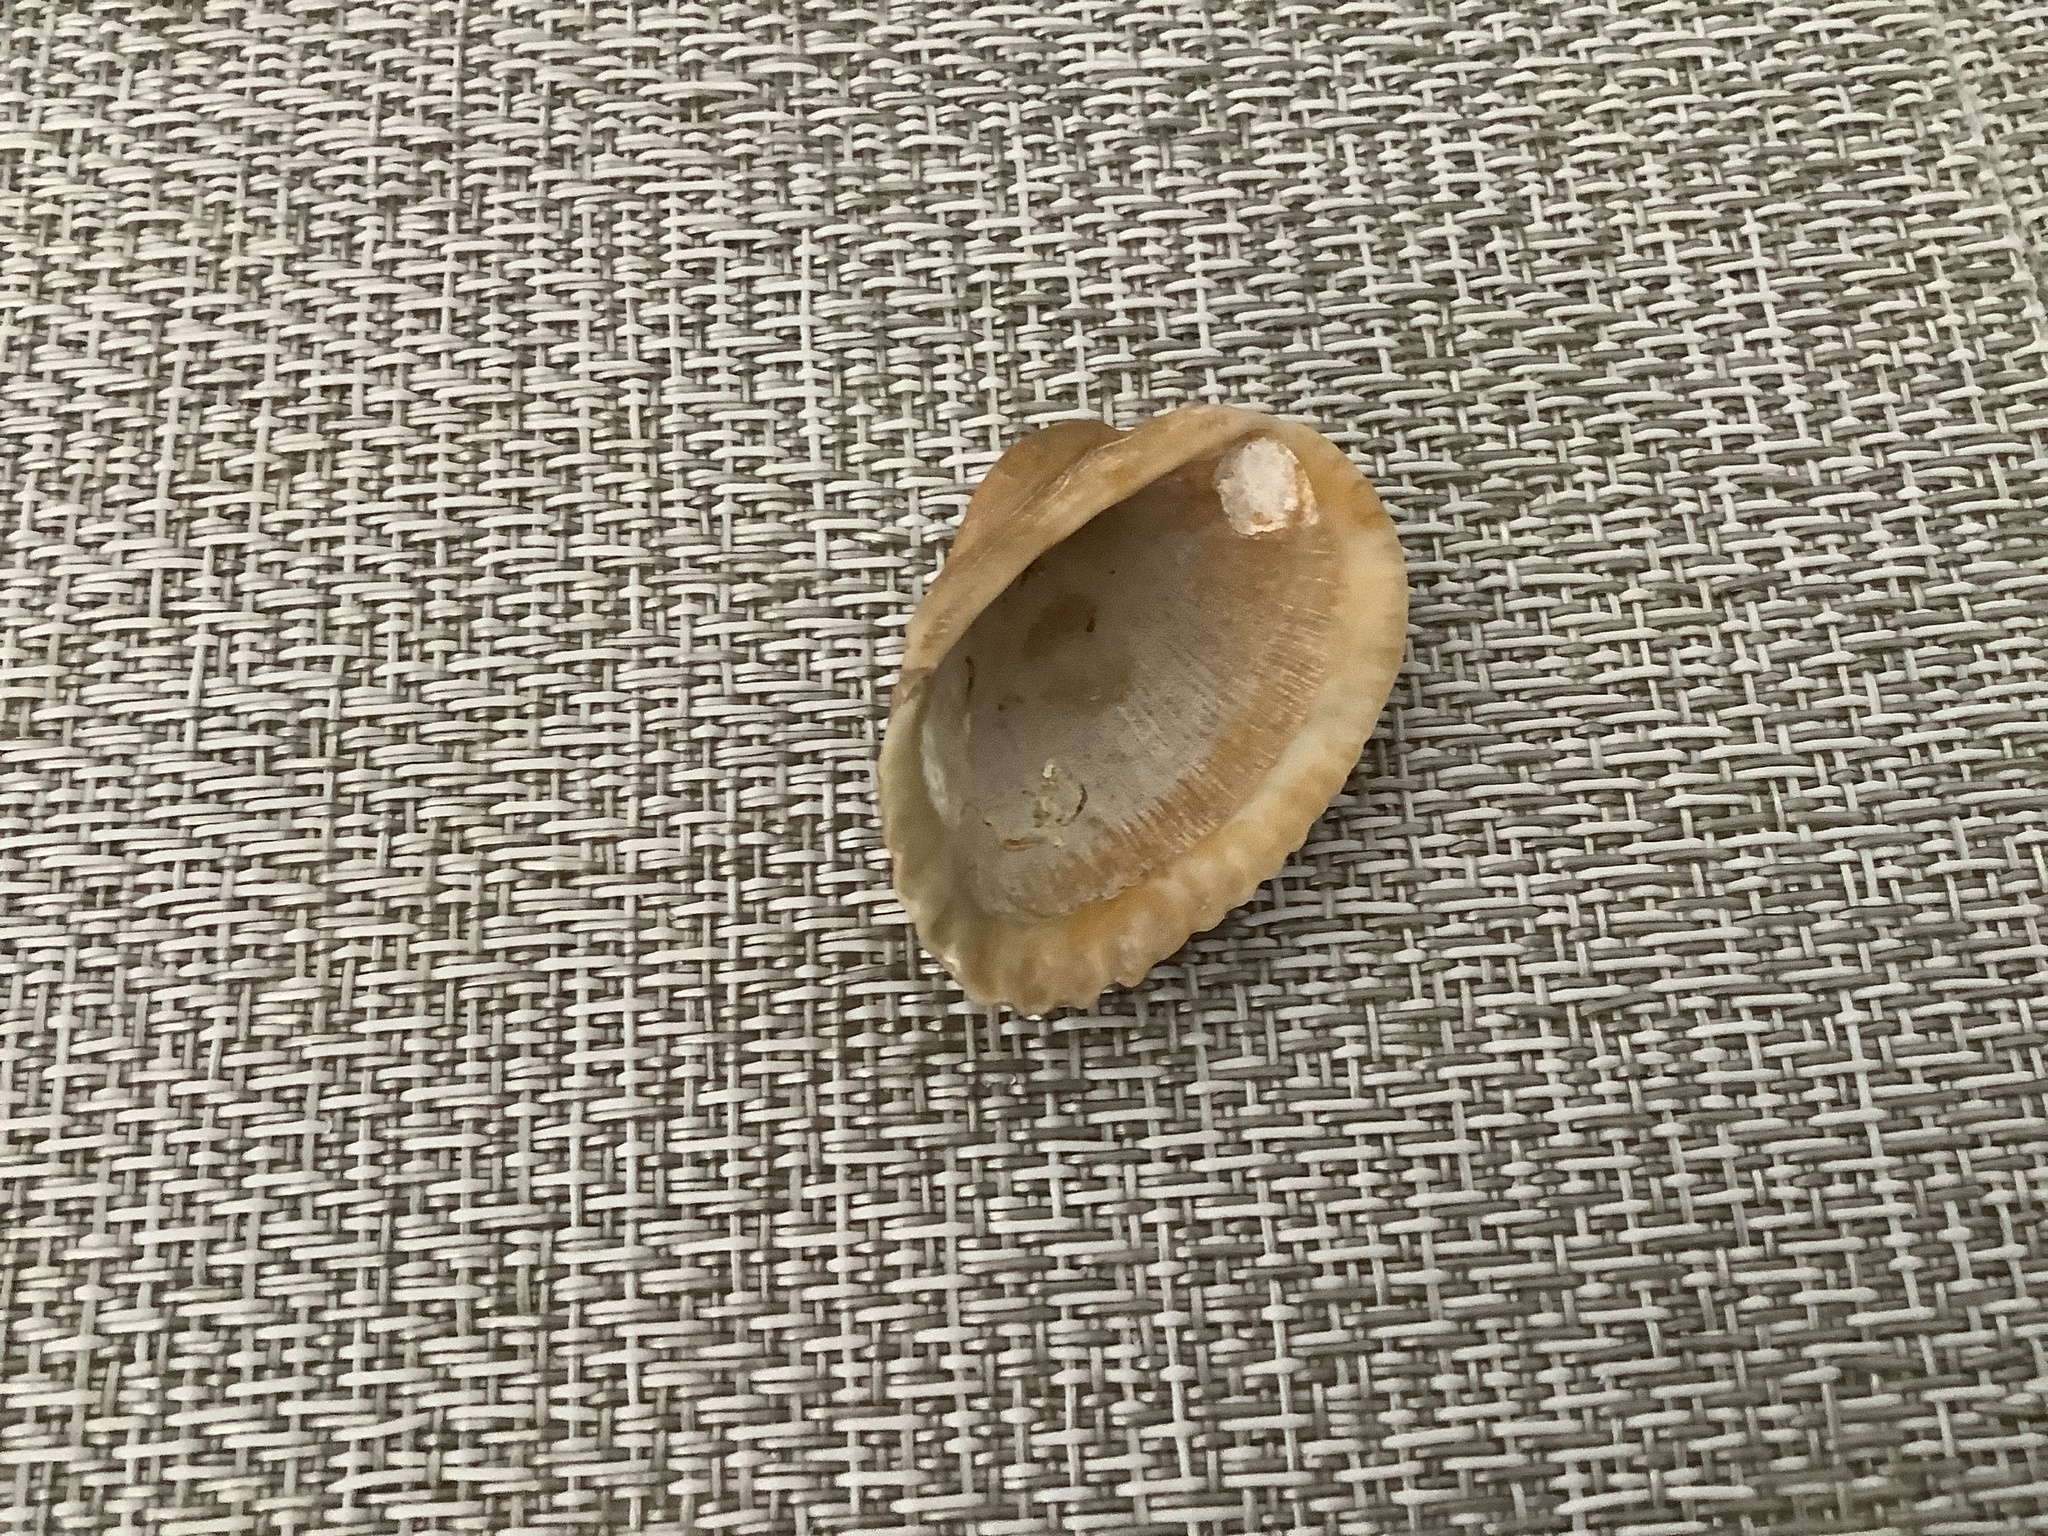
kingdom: Animalia
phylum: Mollusca
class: Bivalvia
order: Arcida
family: Arcidae
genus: Anadara
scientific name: Anadara transversa
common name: Transverse ark
